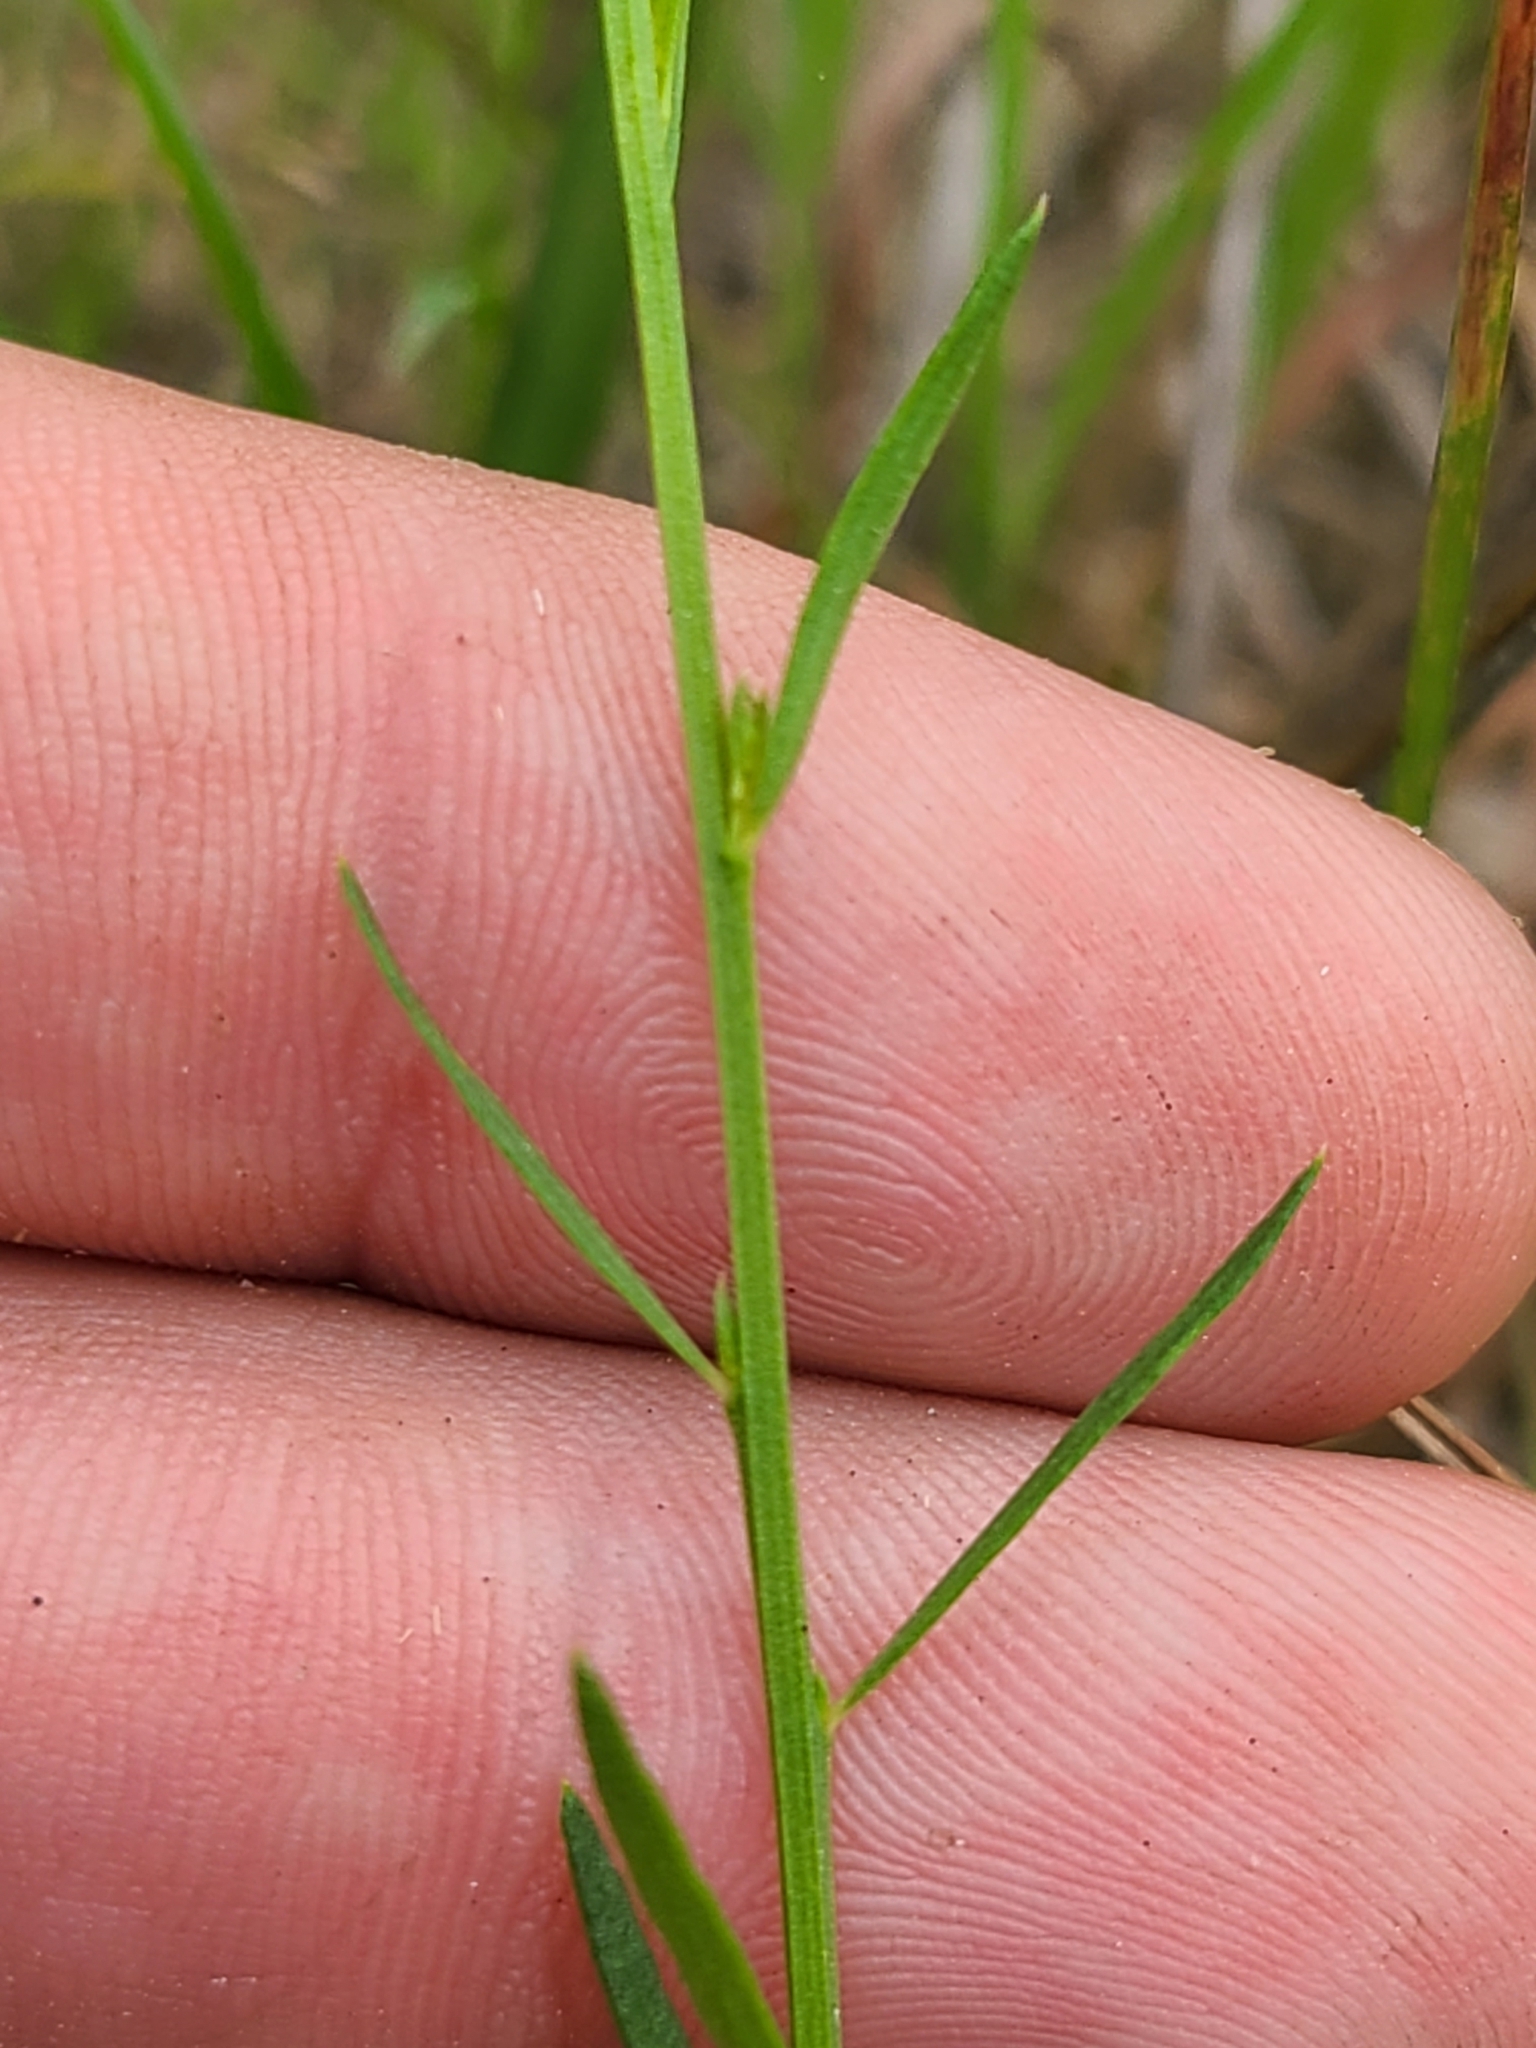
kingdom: Plantae
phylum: Tracheophyta
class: Magnoliopsida
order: Fabales
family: Polygalaceae
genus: Polygala
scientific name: Polygala mariana
